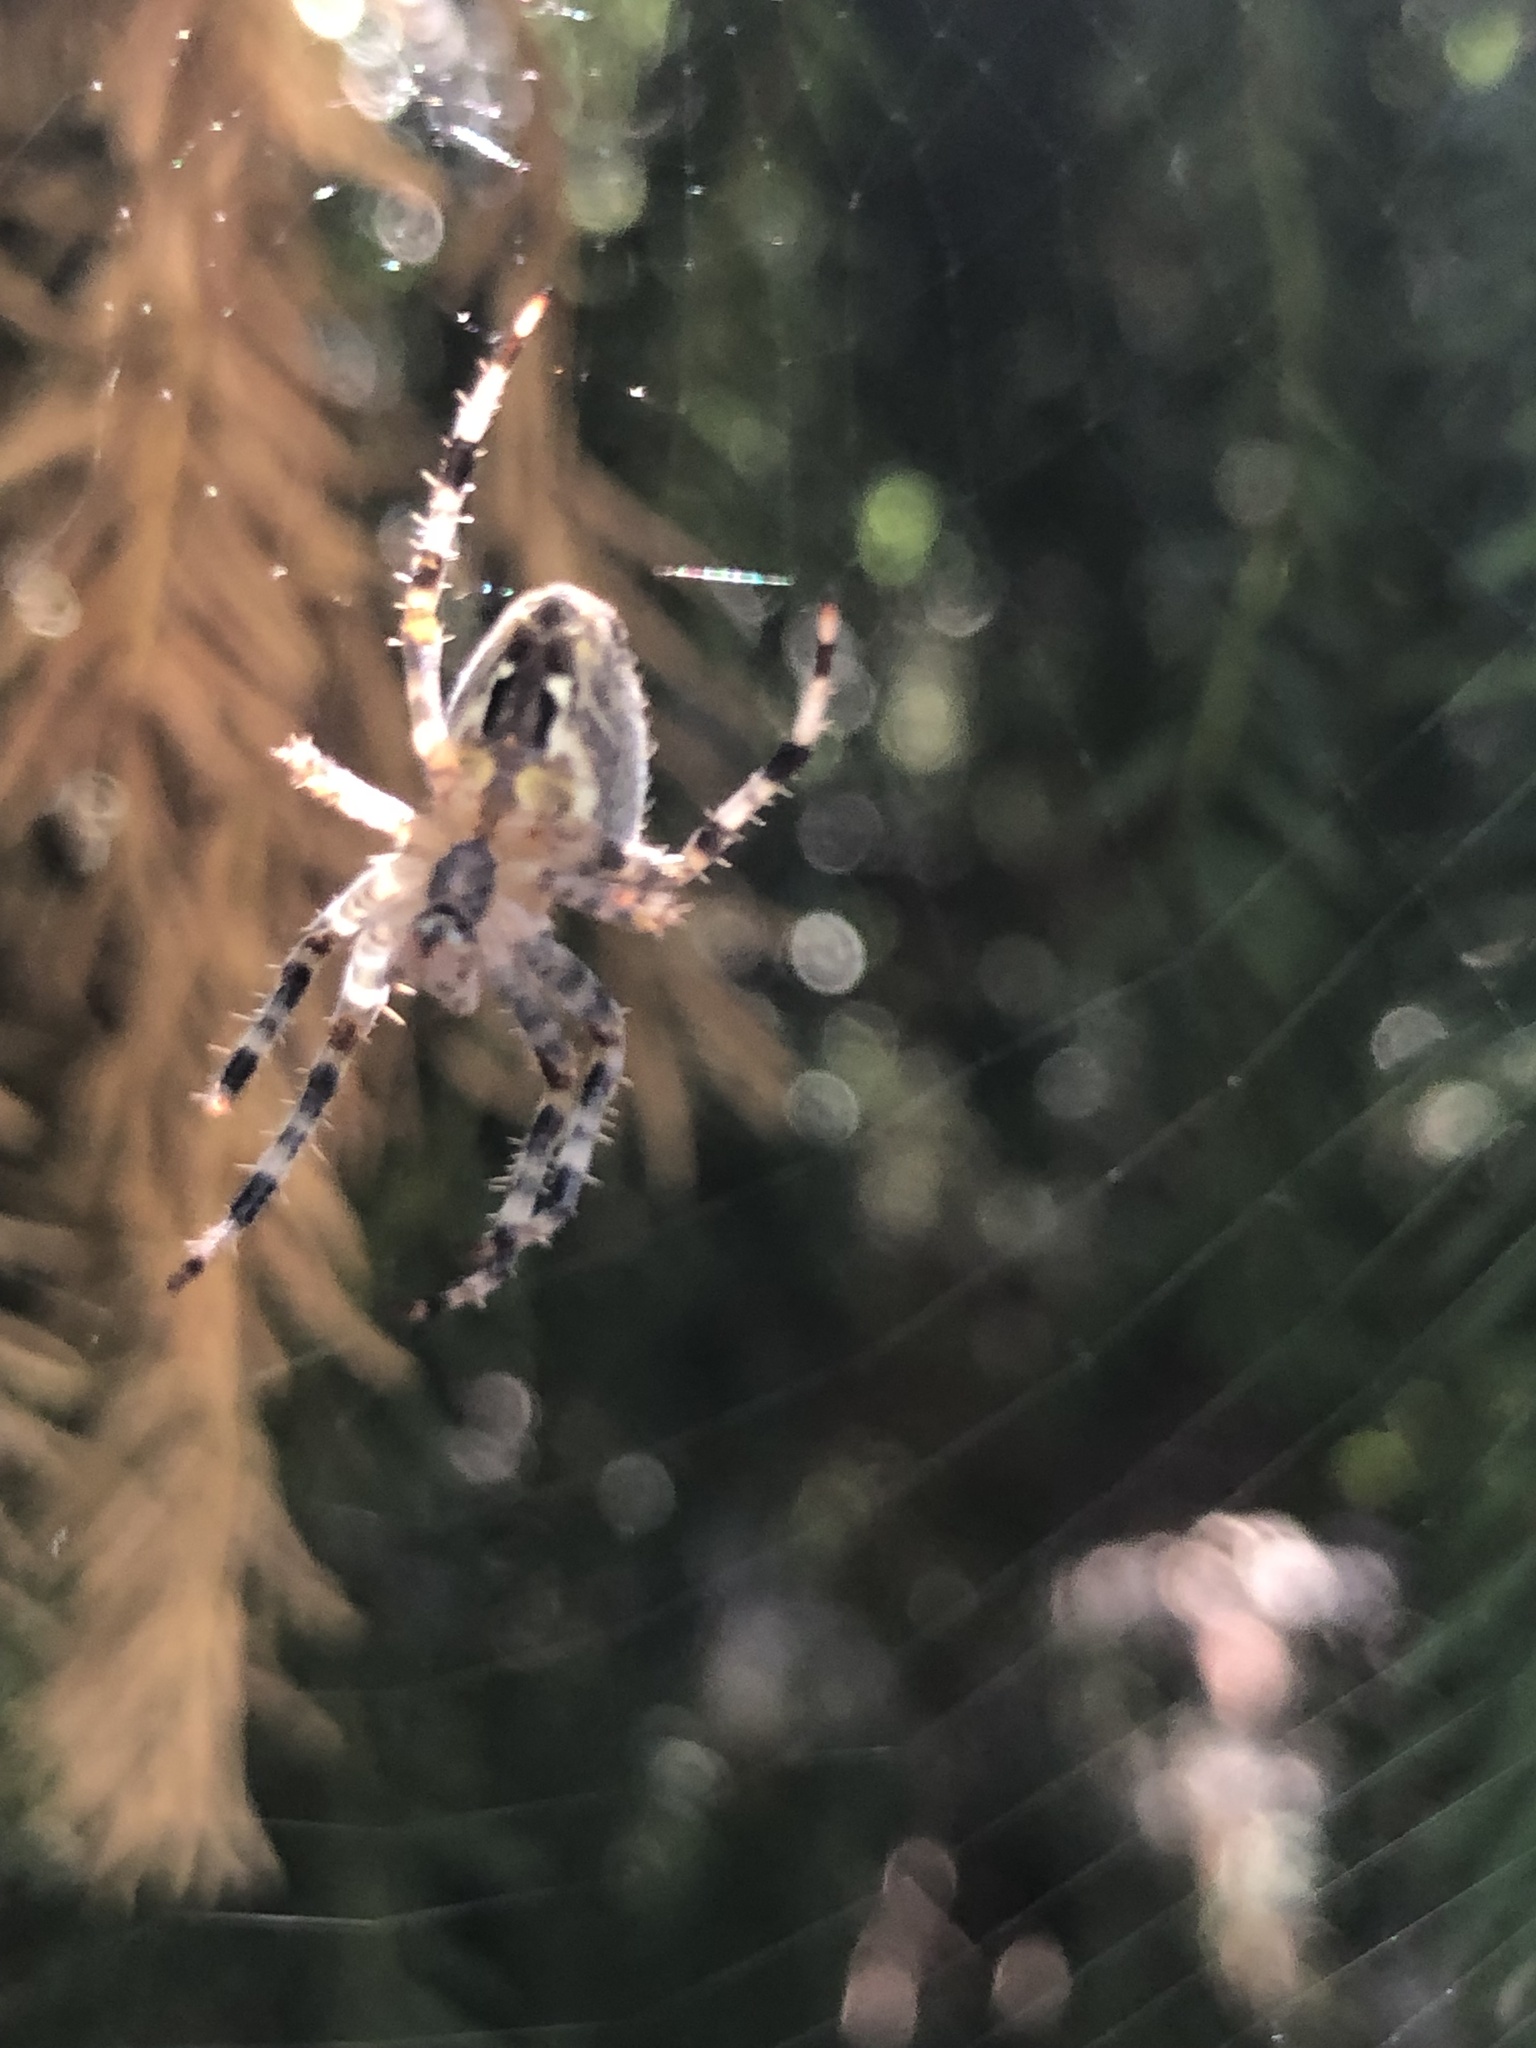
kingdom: Animalia
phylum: Arthropoda
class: Arachnida
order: Araneae
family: Araneidae
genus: Araneus
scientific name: Araneus diadematus
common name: Cross orbweaver
